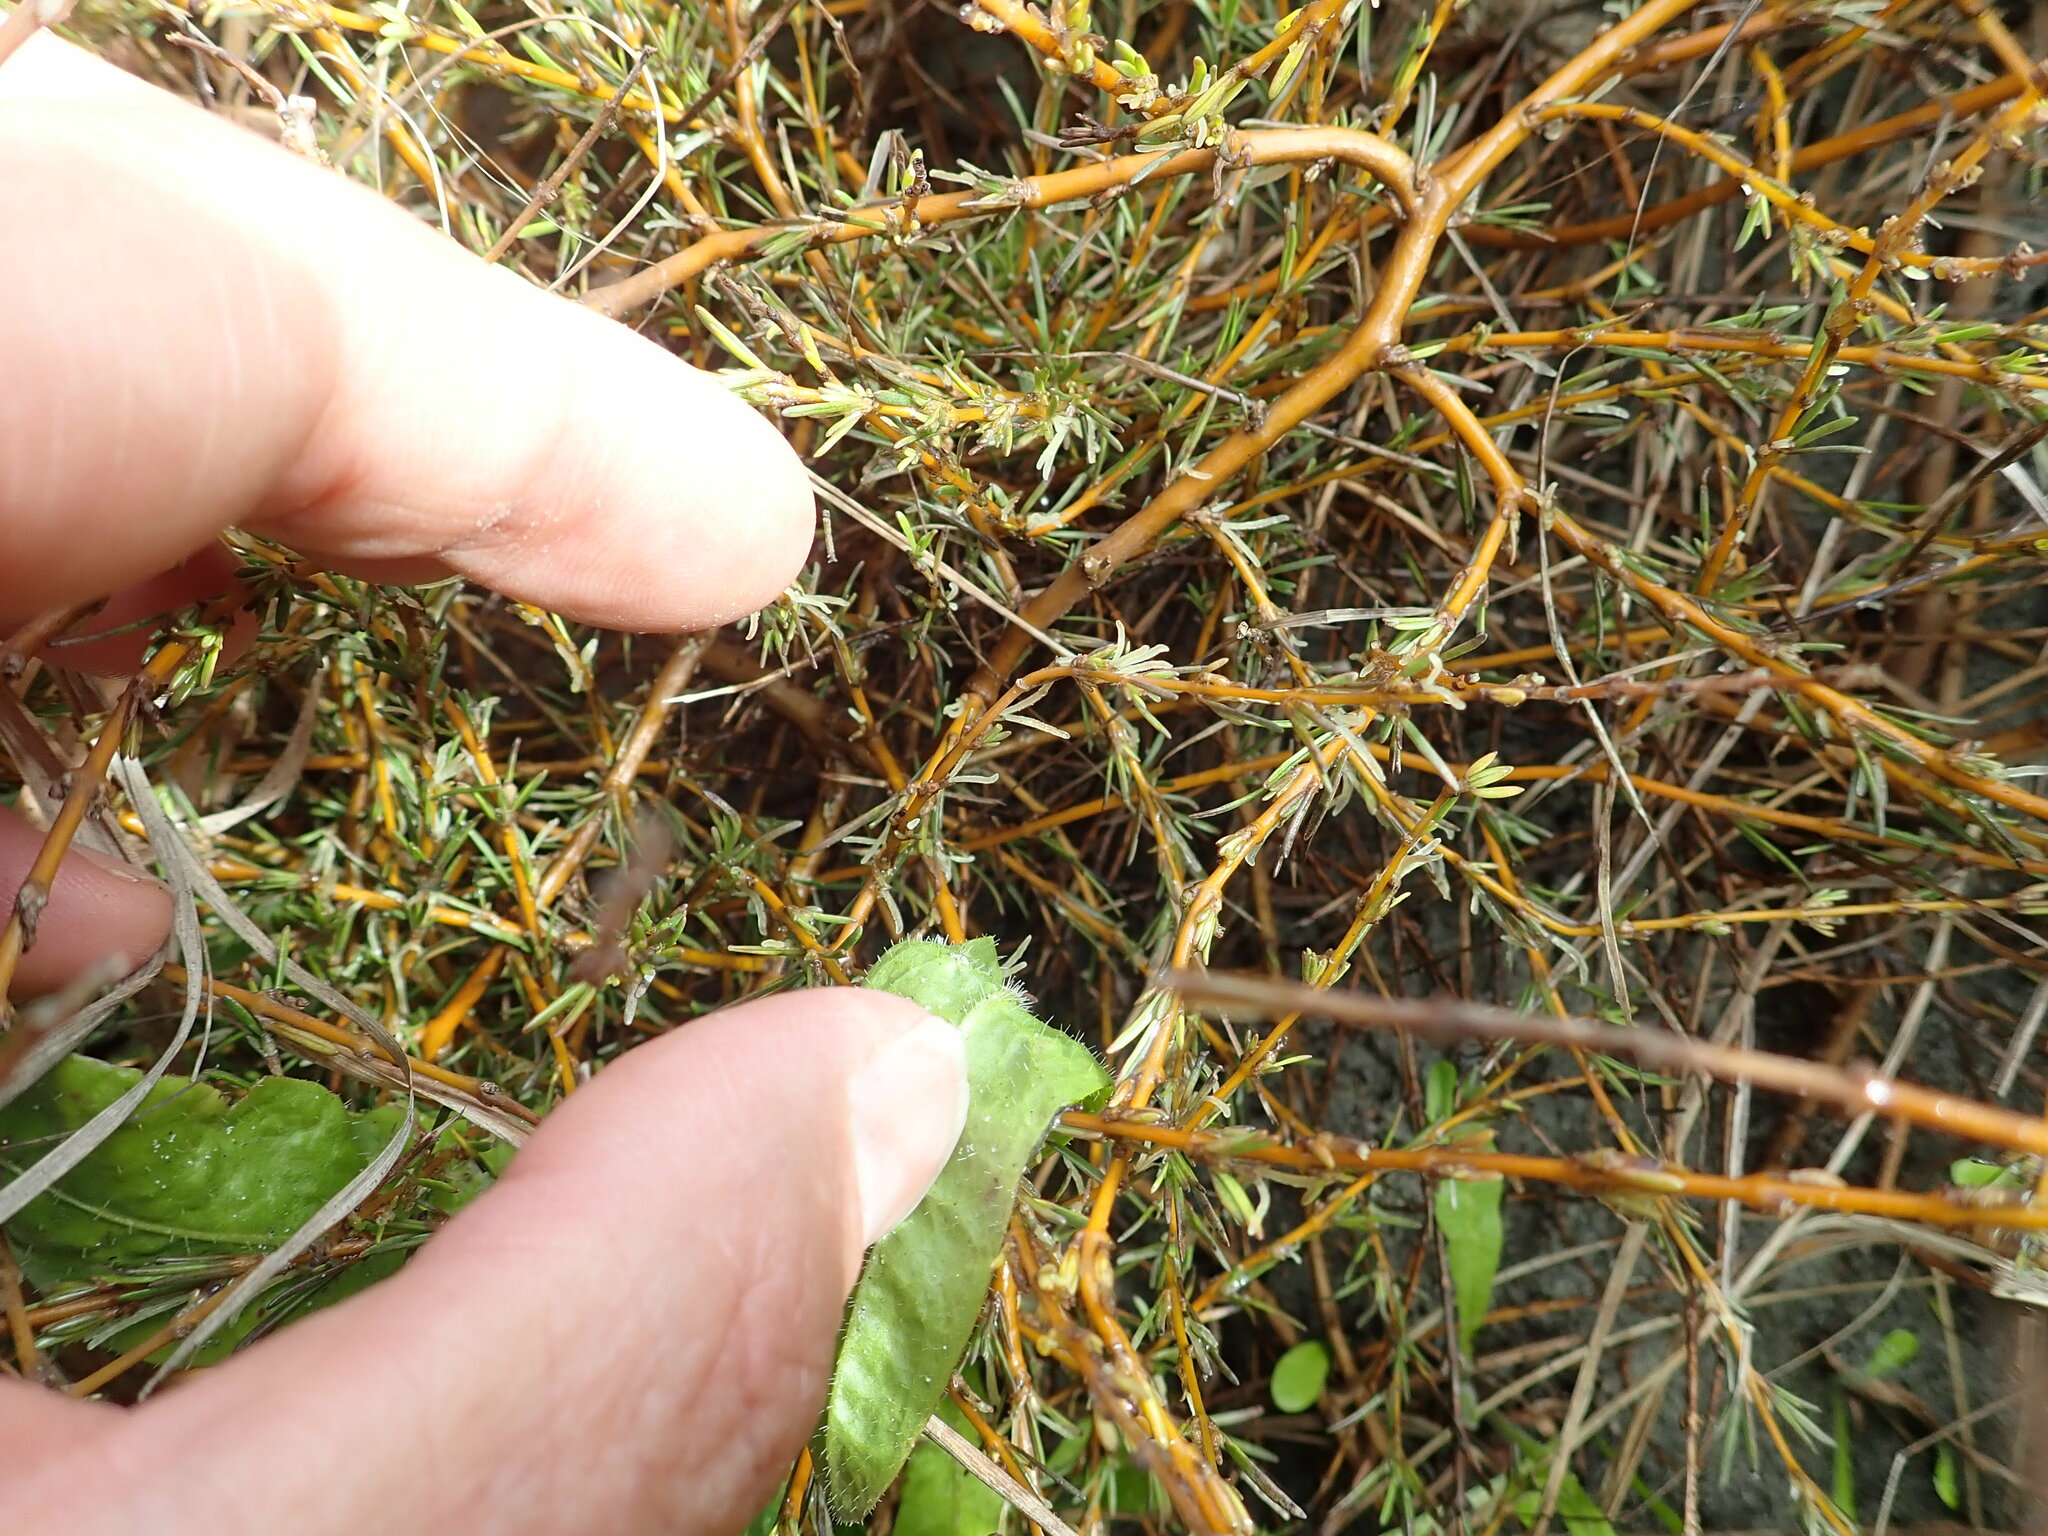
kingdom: Plantae
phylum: Tracheophyta
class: Magnoliopsida
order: Gentianales
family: Rubiaceae
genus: Coprosma
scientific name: Coprosma acerosa
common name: Sand coprosma
